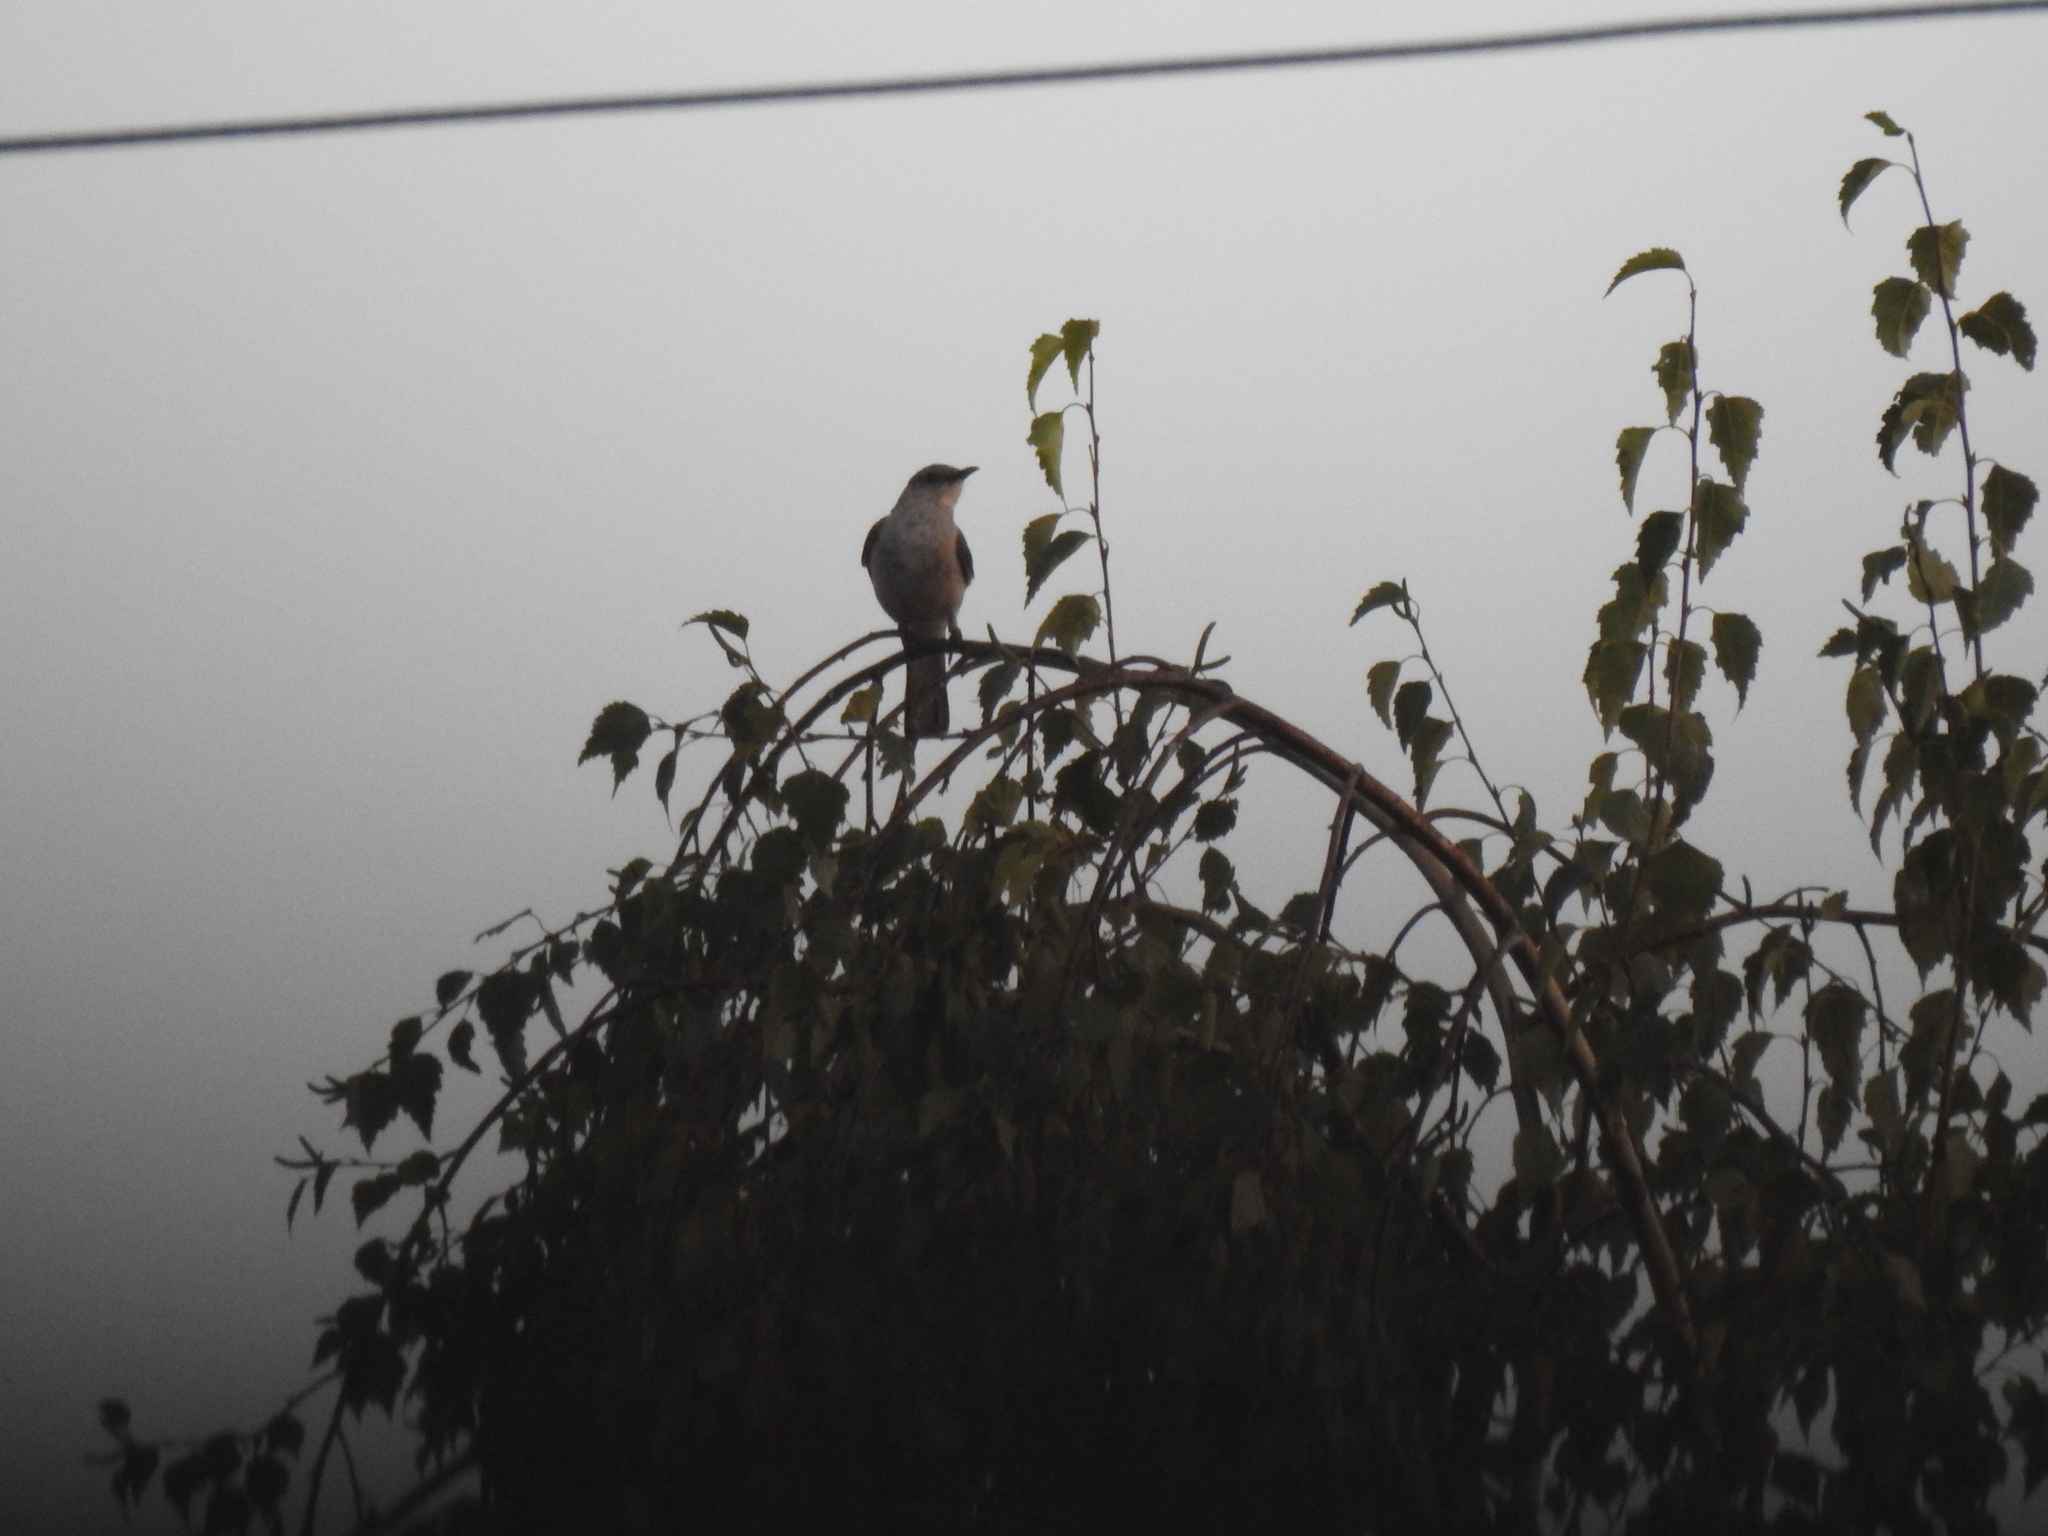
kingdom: Animalia
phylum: Chordata
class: Aves
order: Passeriformes
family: Mimidae
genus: Mimus
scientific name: Mimus polyglottos
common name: Northern mockingbird
